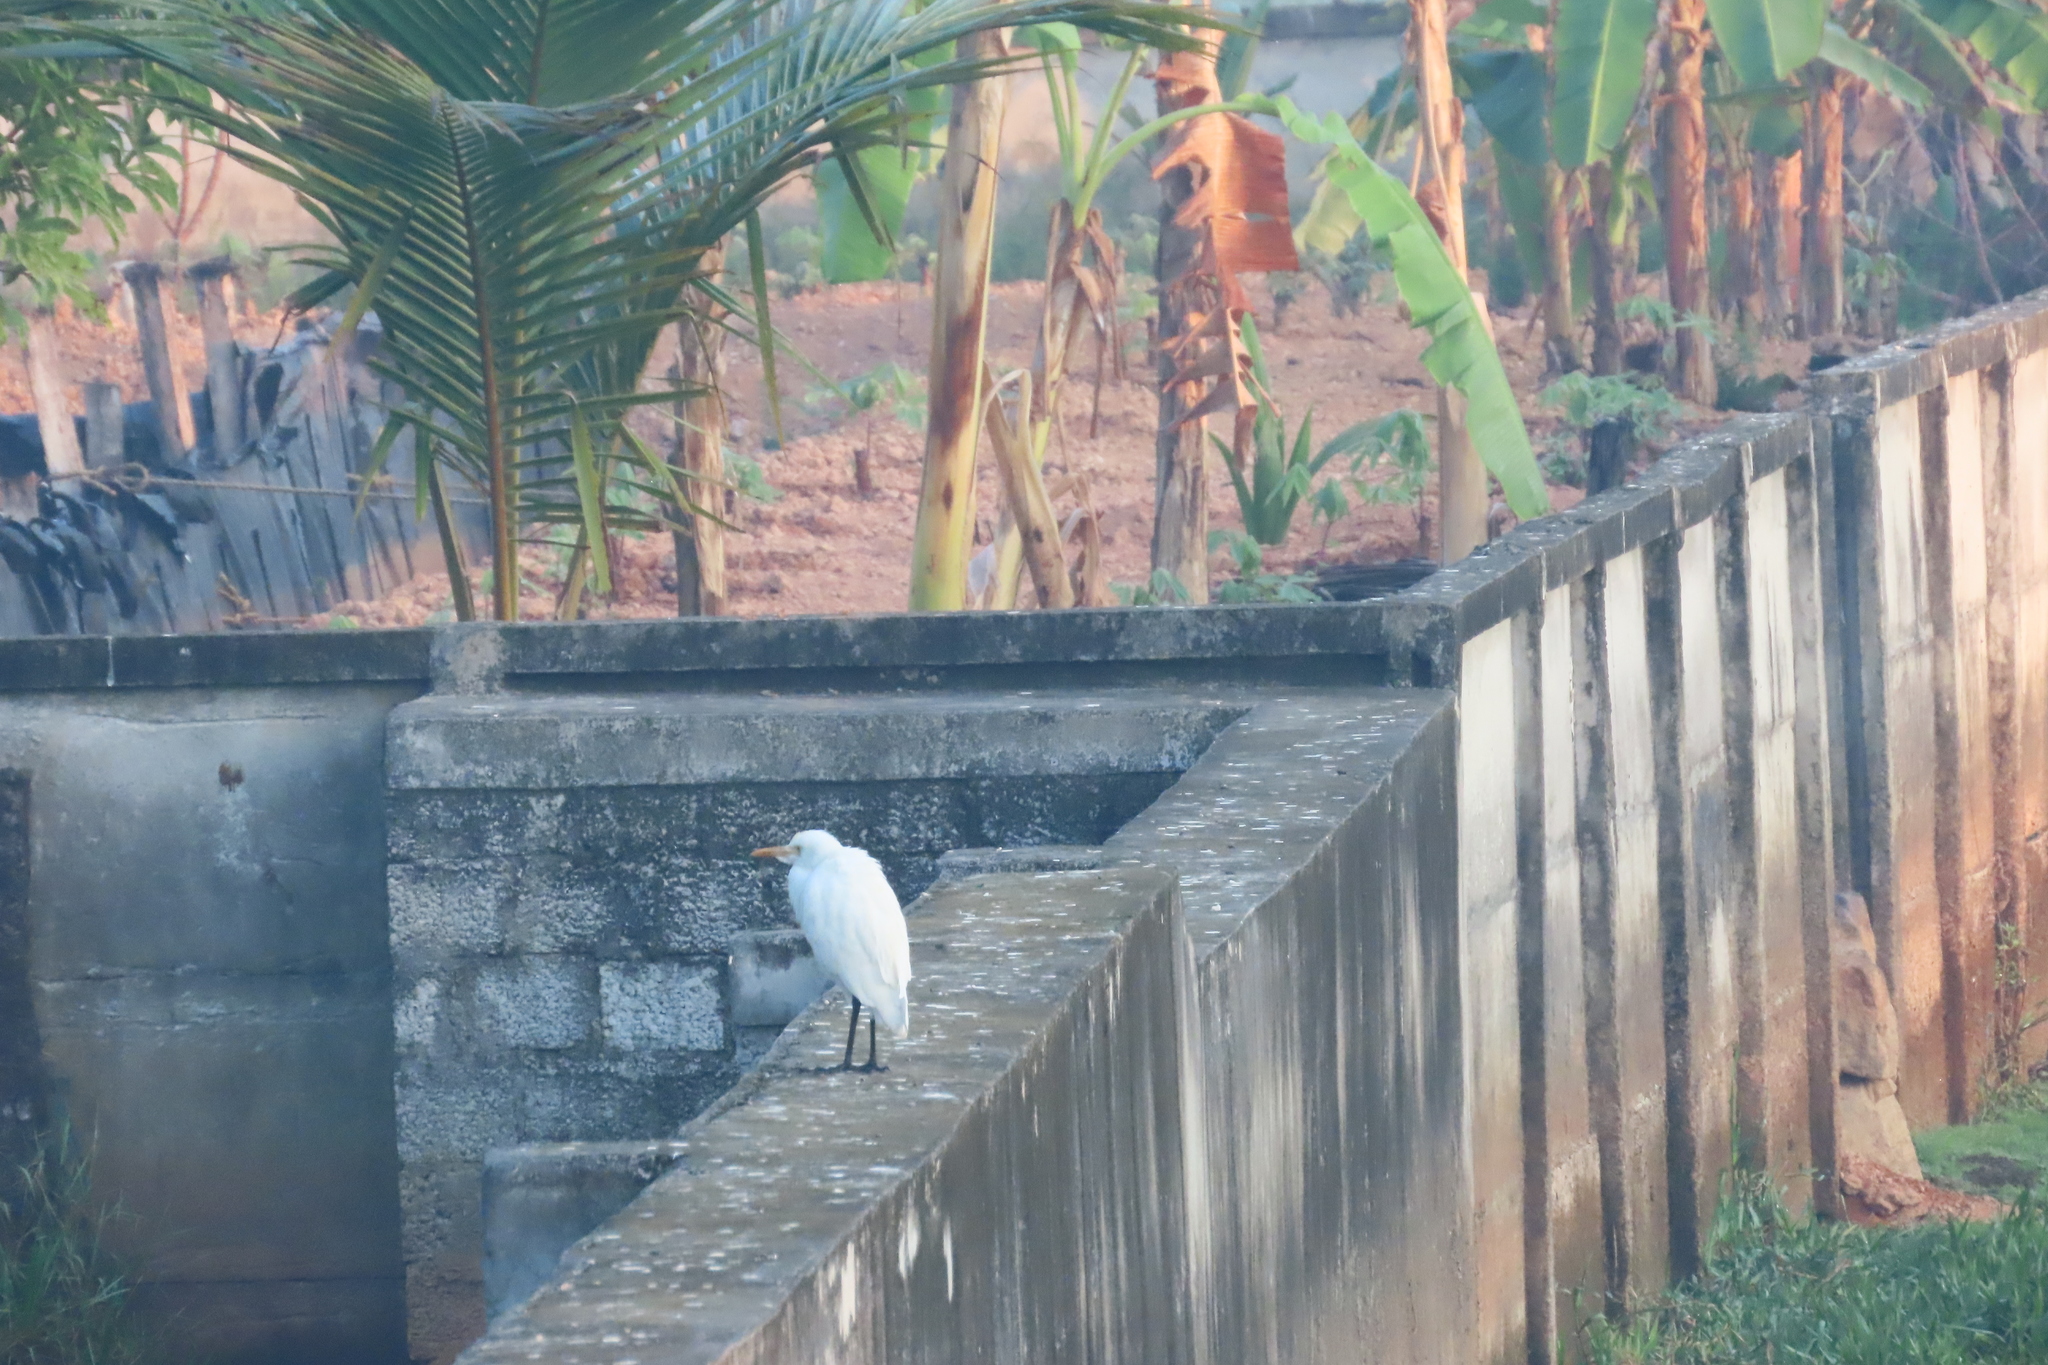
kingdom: Animalia
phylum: Chordata
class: Aves
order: Pelecaniformes
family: Ardeidae
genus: Bubulcus
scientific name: Bubulcus coromandus
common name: Eastern cattle egret
